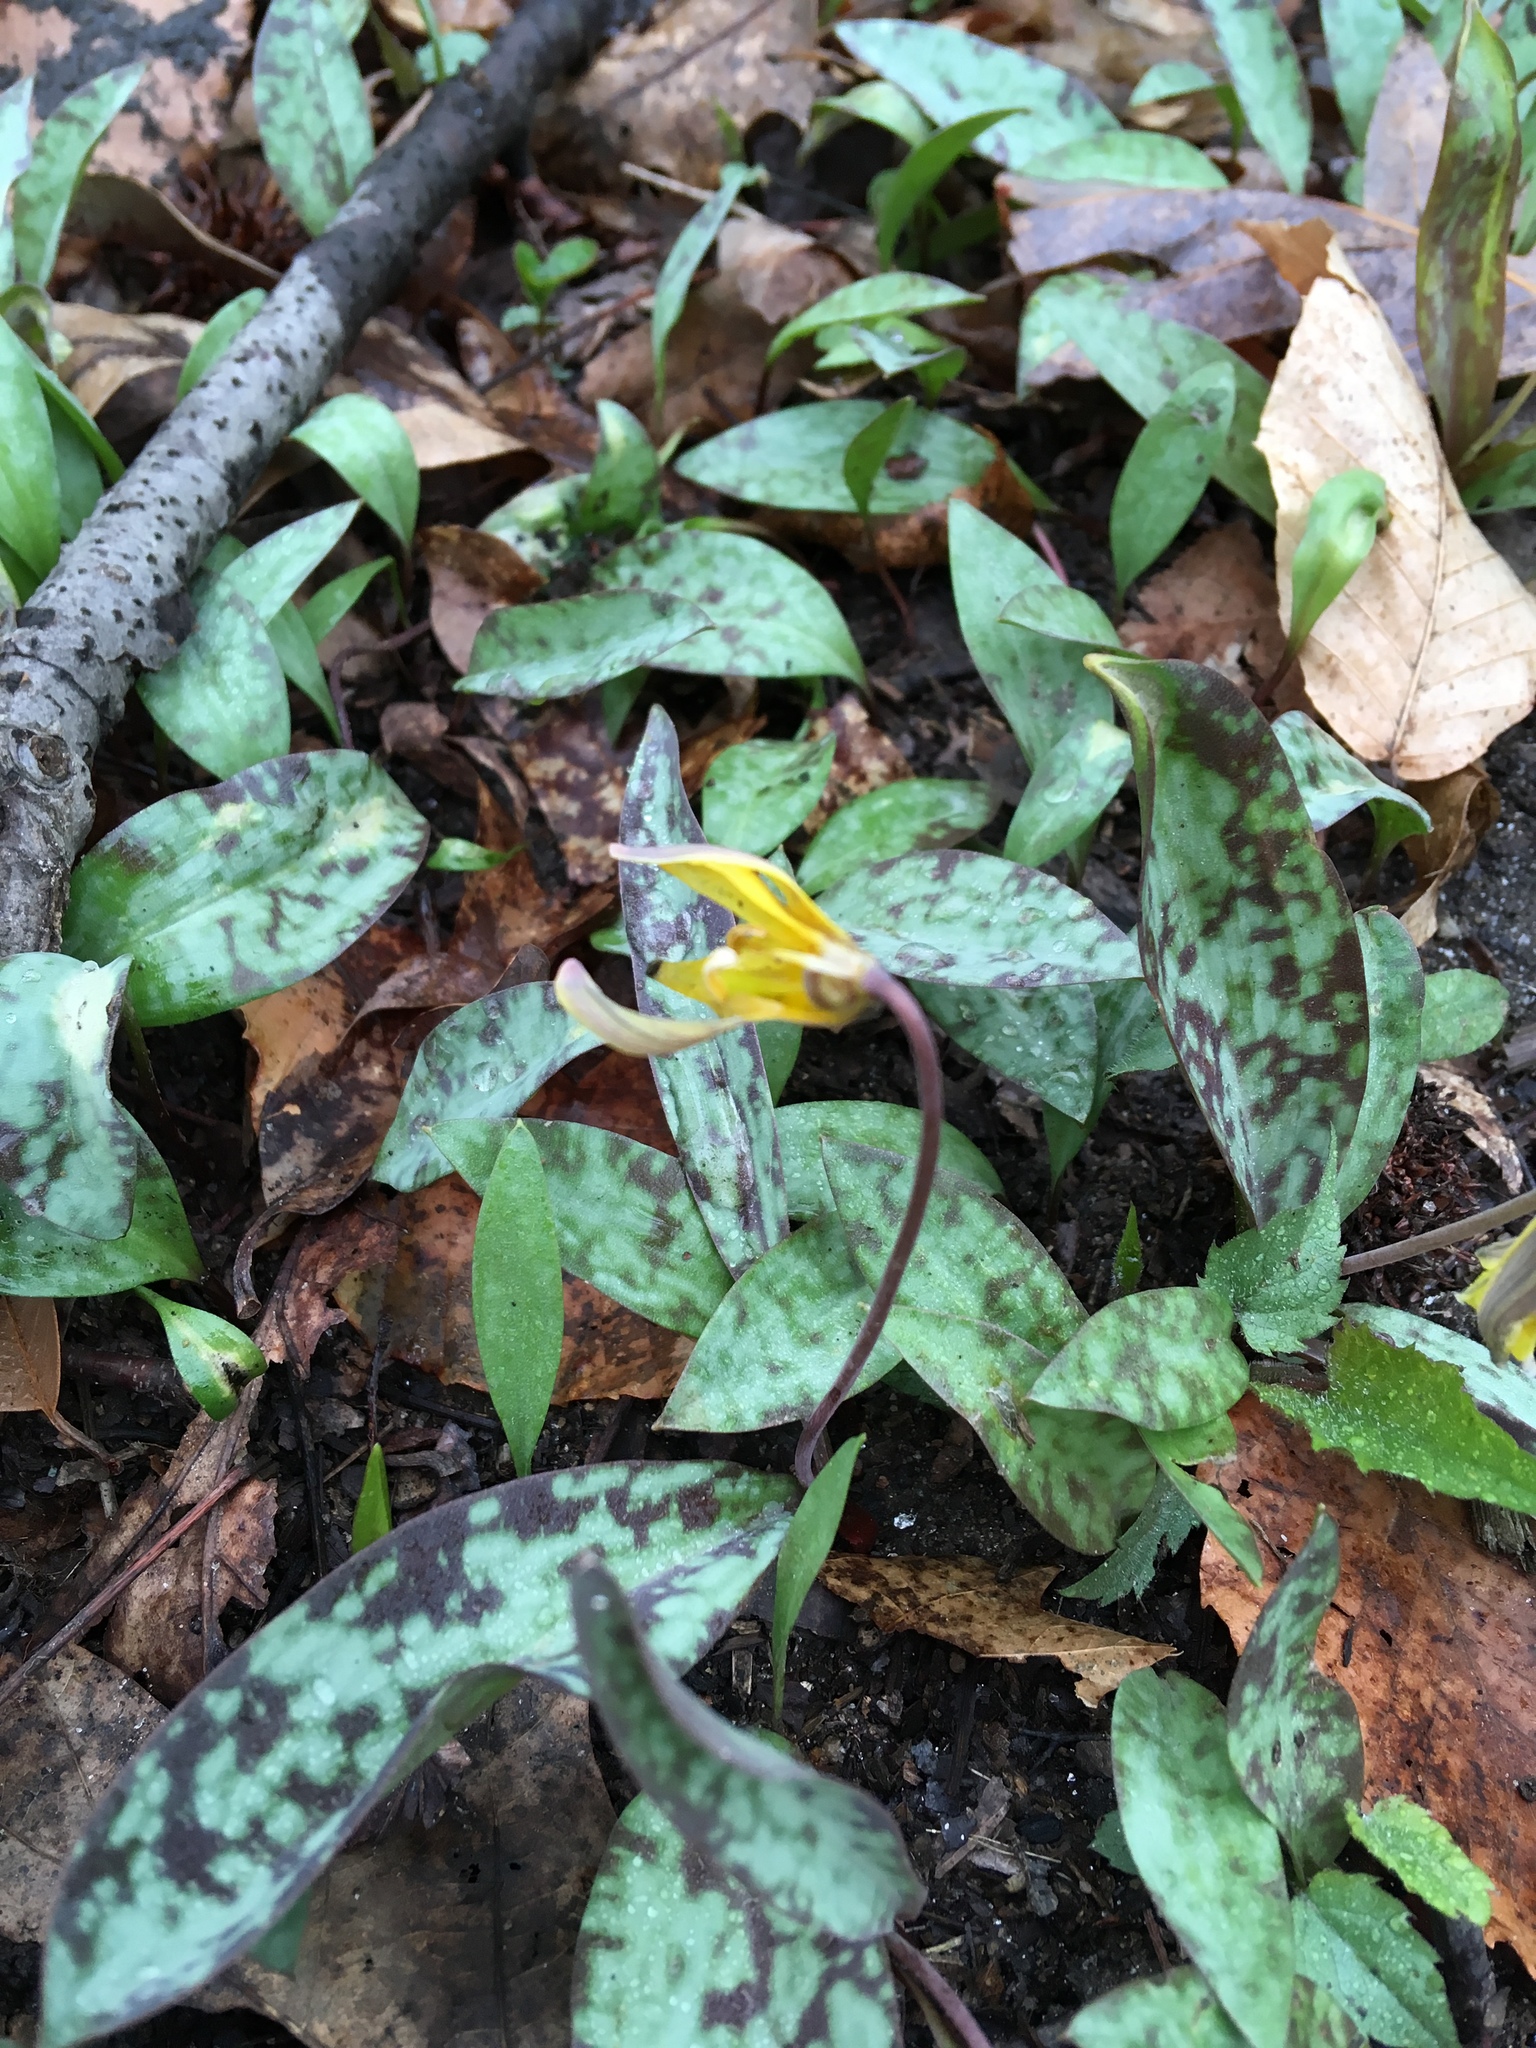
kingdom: Plantae
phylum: Tracheophyta
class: Liliopsida
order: Liliales
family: Liliaceae
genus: Erythronium
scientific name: Erythronium americanum
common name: Yellow adder's-tongue
